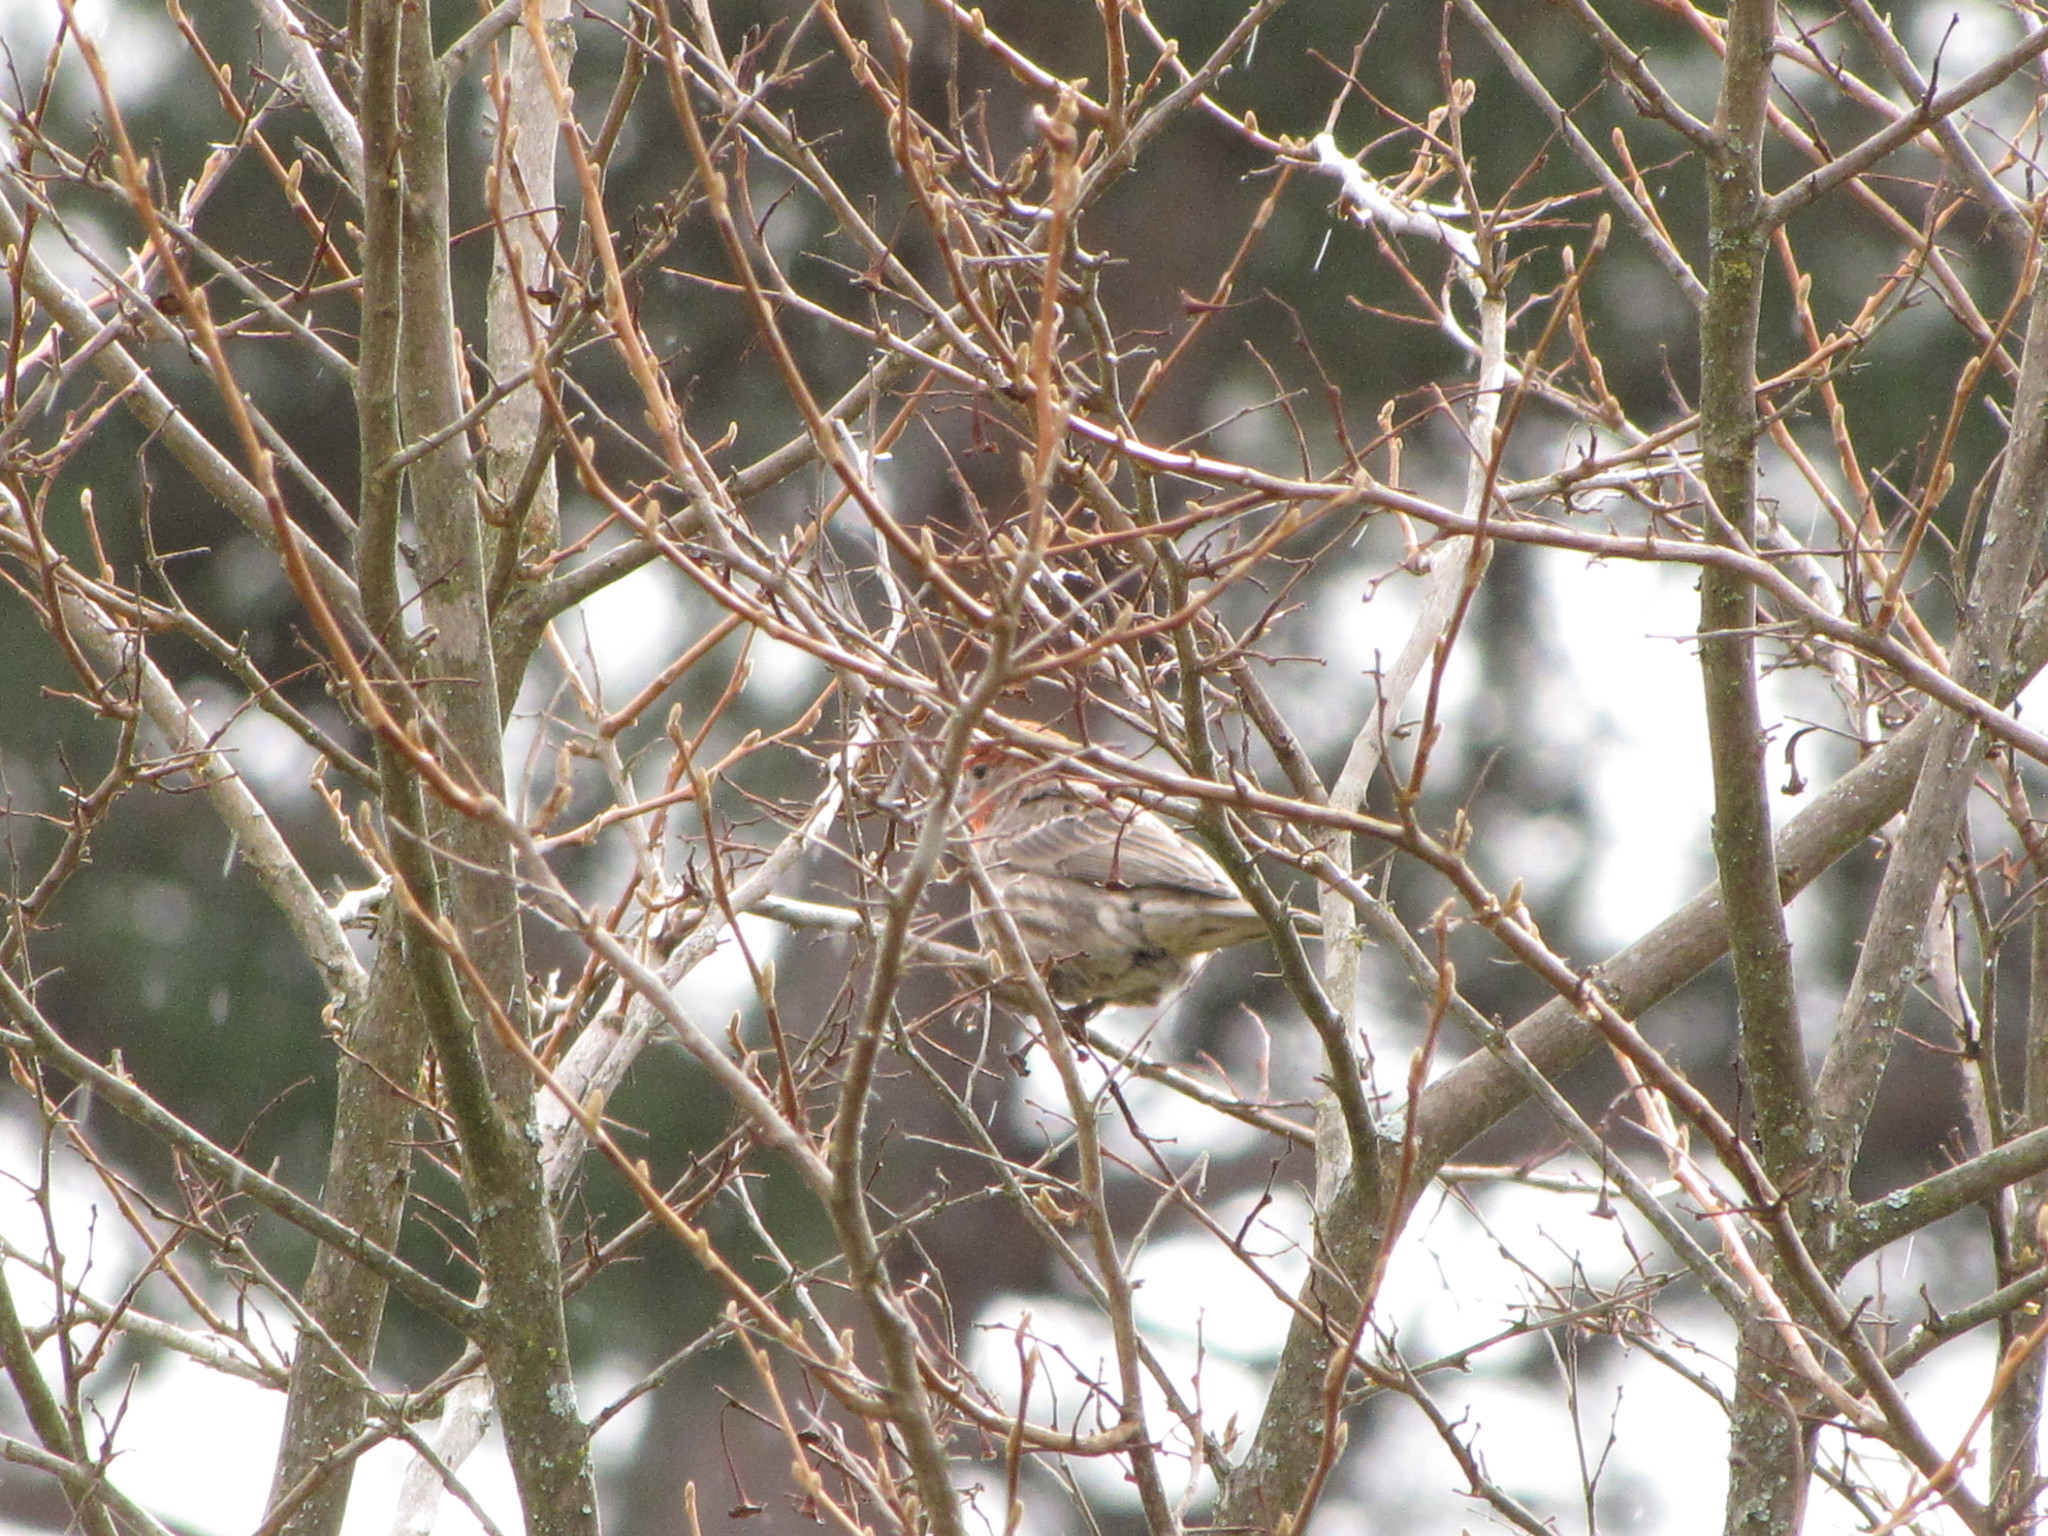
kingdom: Animalia
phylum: Chordata
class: Aves
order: Passeriformes
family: Fringillidae
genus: Haemorhous
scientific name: Haemorhous mexicanus
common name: House finch
